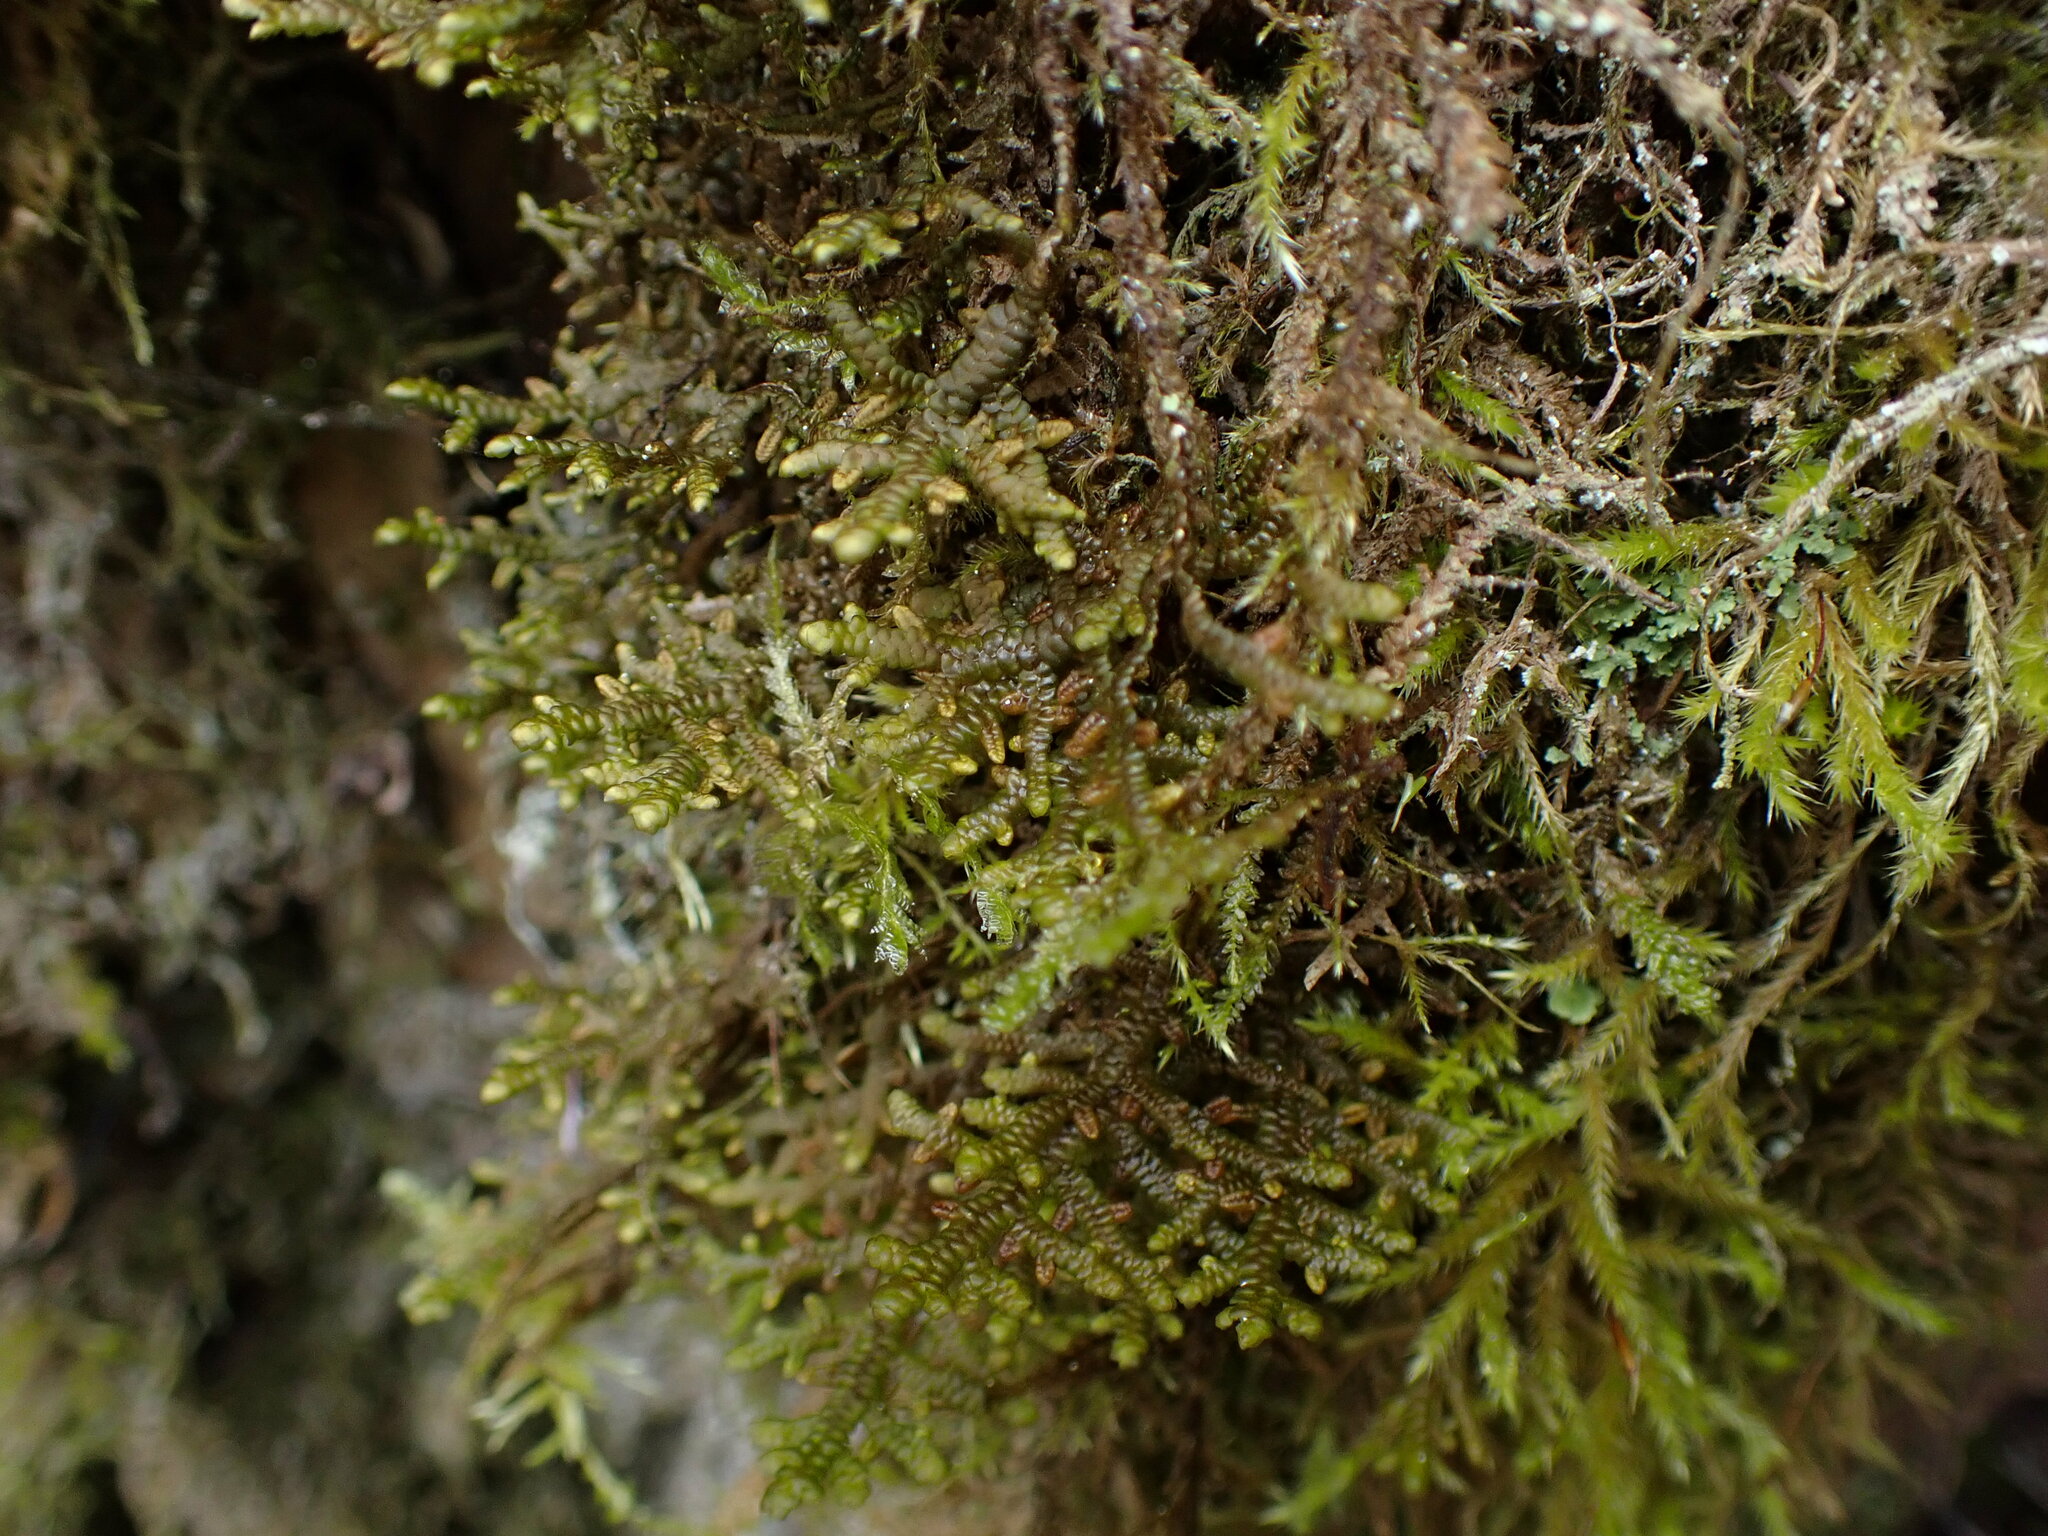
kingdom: Plantae
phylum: Marchantiophyta
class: Jungermanniopsida
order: Porellales
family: Porellaceae
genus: Porella
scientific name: Porella navicularis
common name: Tree ruffle liverwort
